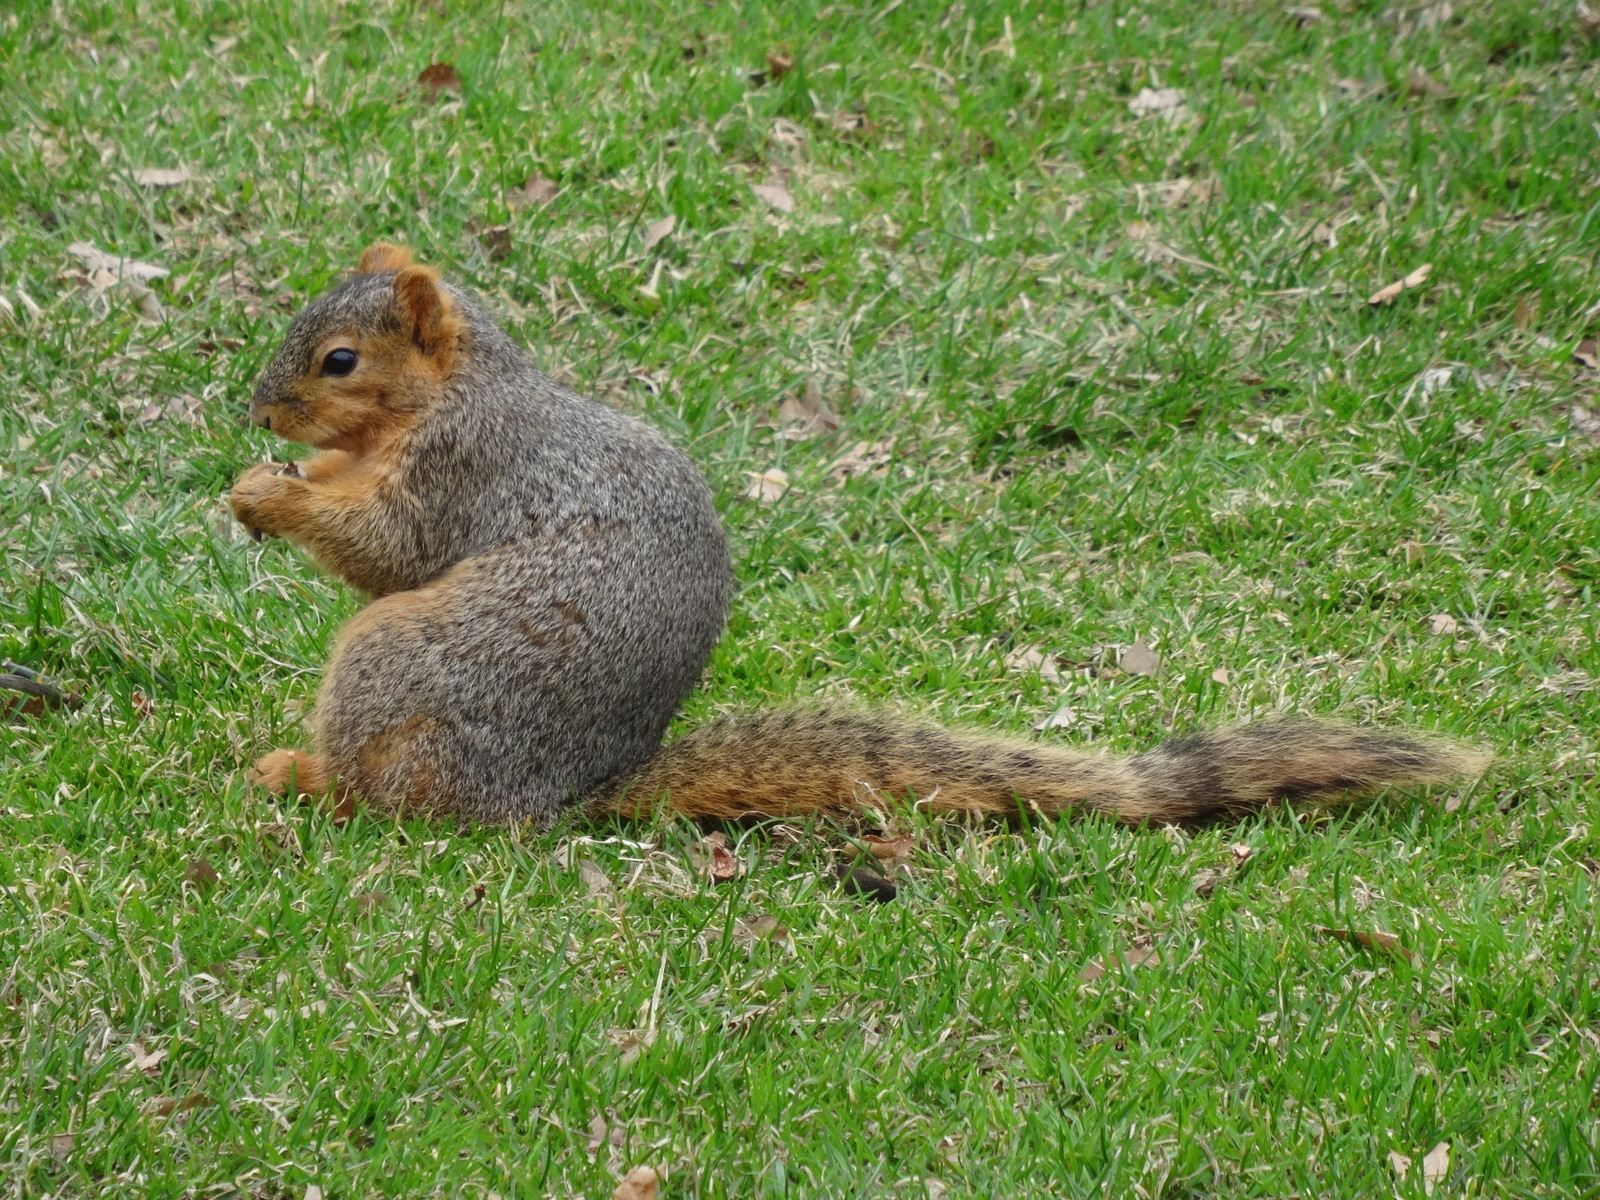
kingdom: Animalia
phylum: Chordata
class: Mammalia
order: Rodentia
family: Sciuridae
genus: Sciurus
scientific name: Sciurus niger
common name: Fox squirrel
